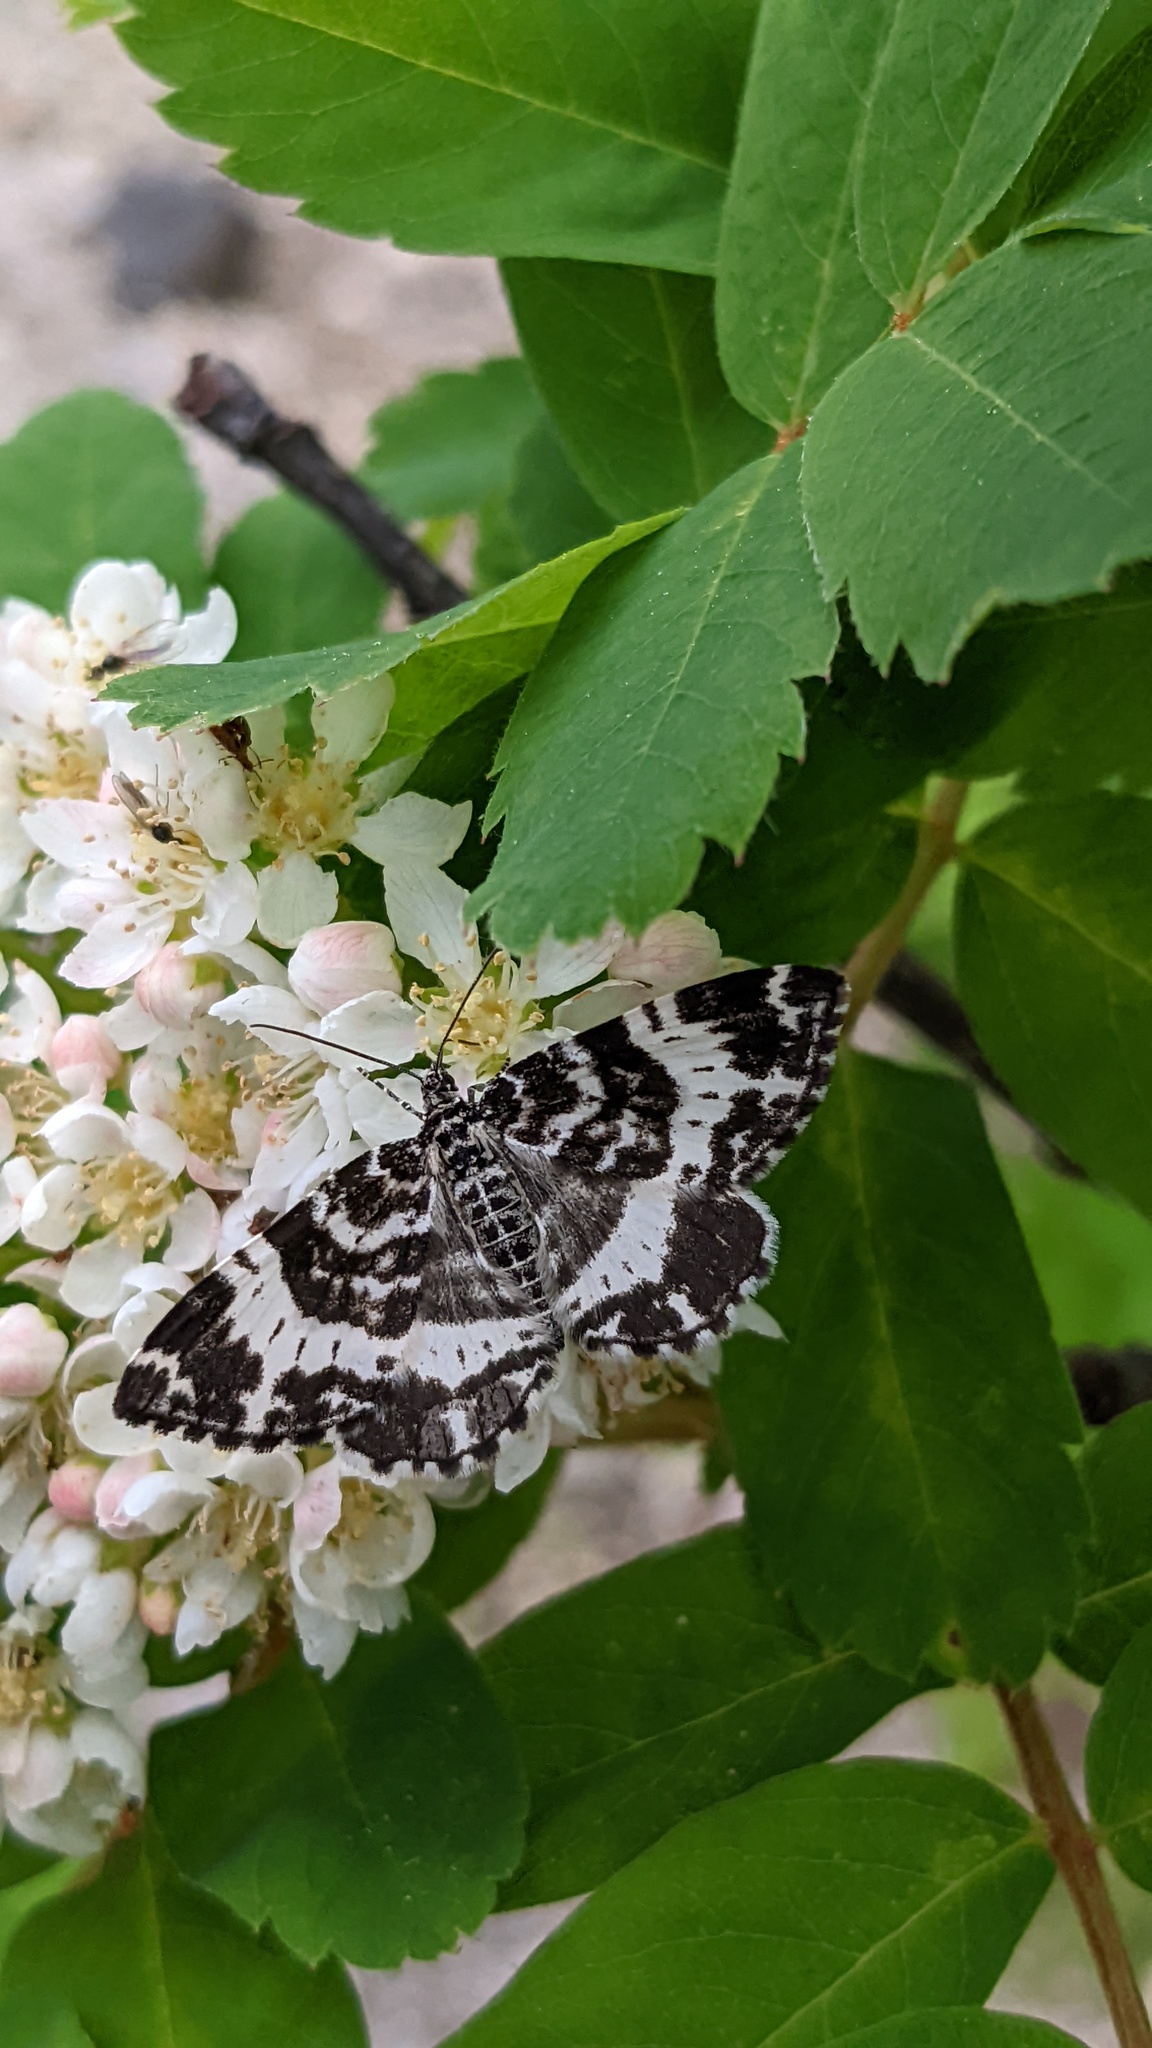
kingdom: Animalia
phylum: Arthropoda
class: Insecta
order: Lepidoptera
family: Geometridae
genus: Rheumaptera
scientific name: Rheumaptera
